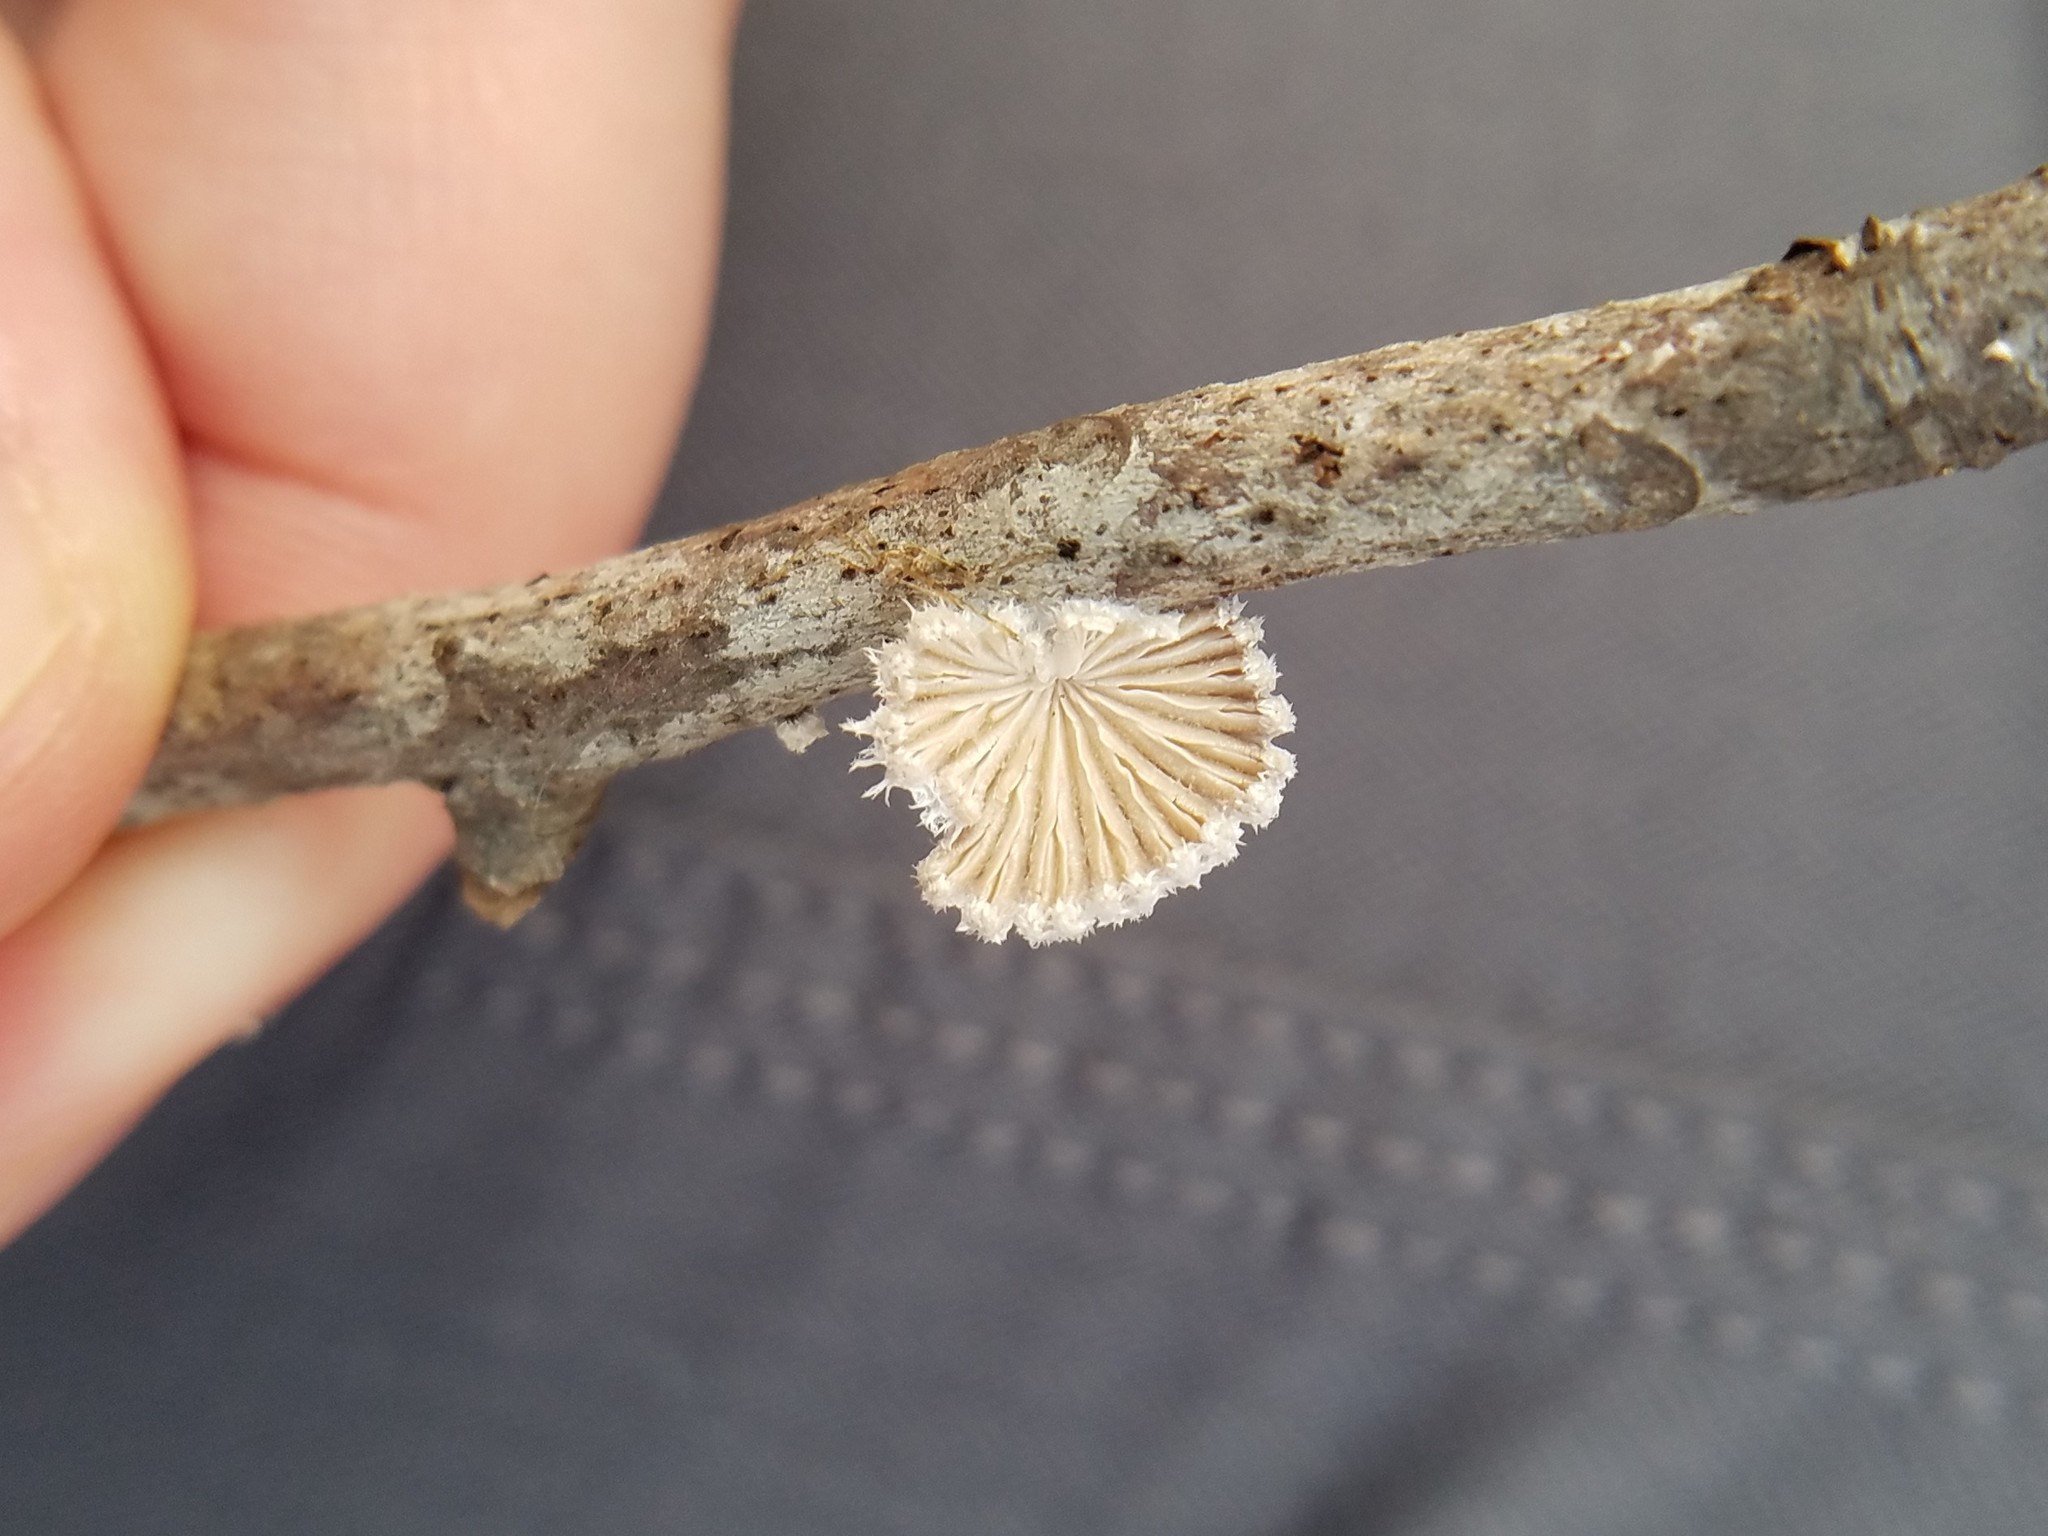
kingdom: Fungi
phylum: Basidiomycota
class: Agaricomycetes
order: Agaricales
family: Schizophyllaceae
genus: Schizophyllum
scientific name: Schizophyllum commune
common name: Common porecrust
